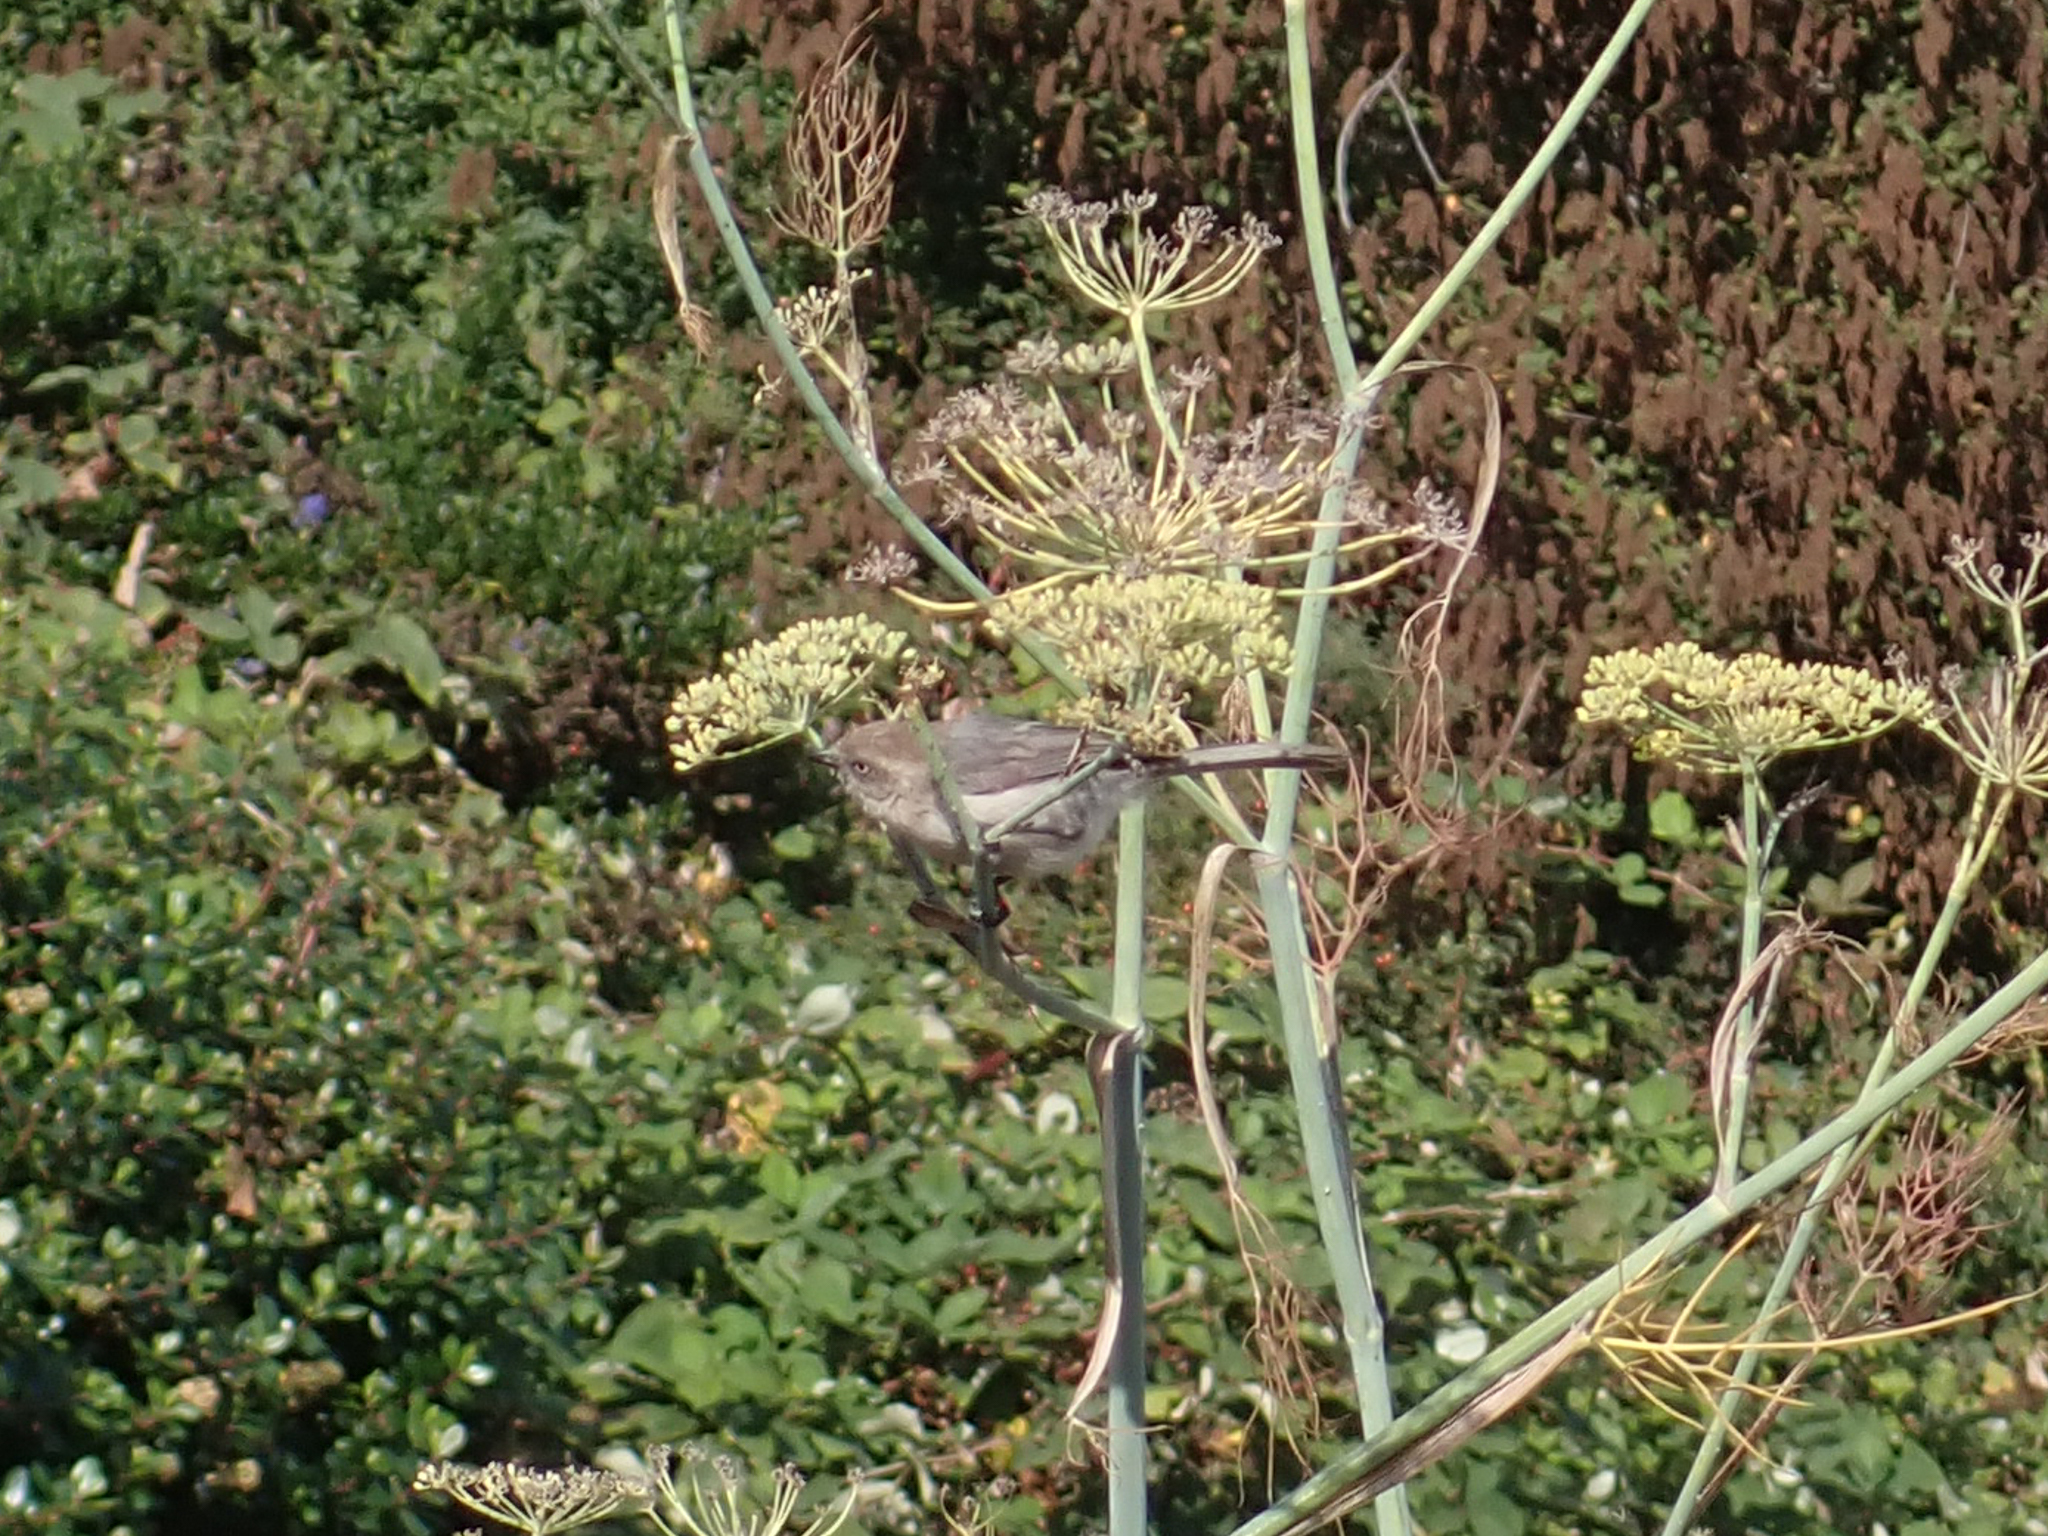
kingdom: Animalia
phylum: Chordata
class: Aves
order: Passeriformes
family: Aegithalidae
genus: Psaltriparus
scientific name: Psaltriparus minimus
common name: American bushtit
